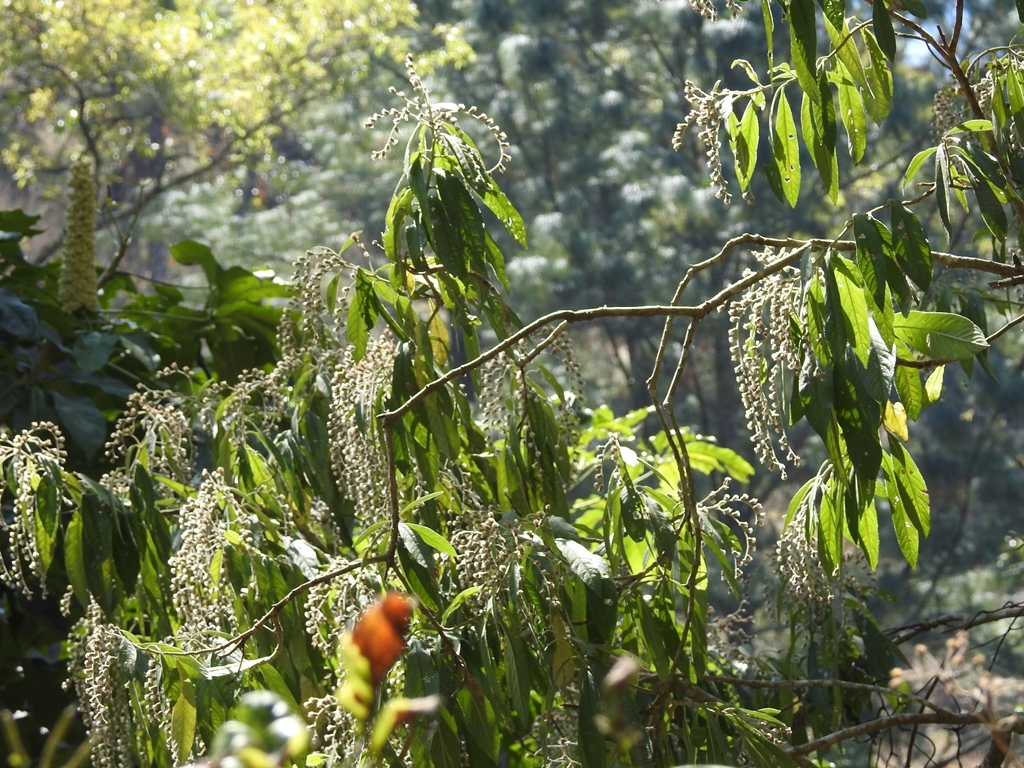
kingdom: Plantae
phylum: Tracheophyta
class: Magnoliopsida
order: Asterales
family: Asteraceae
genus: Lepidaploa
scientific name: Lepidaploa polypleura
